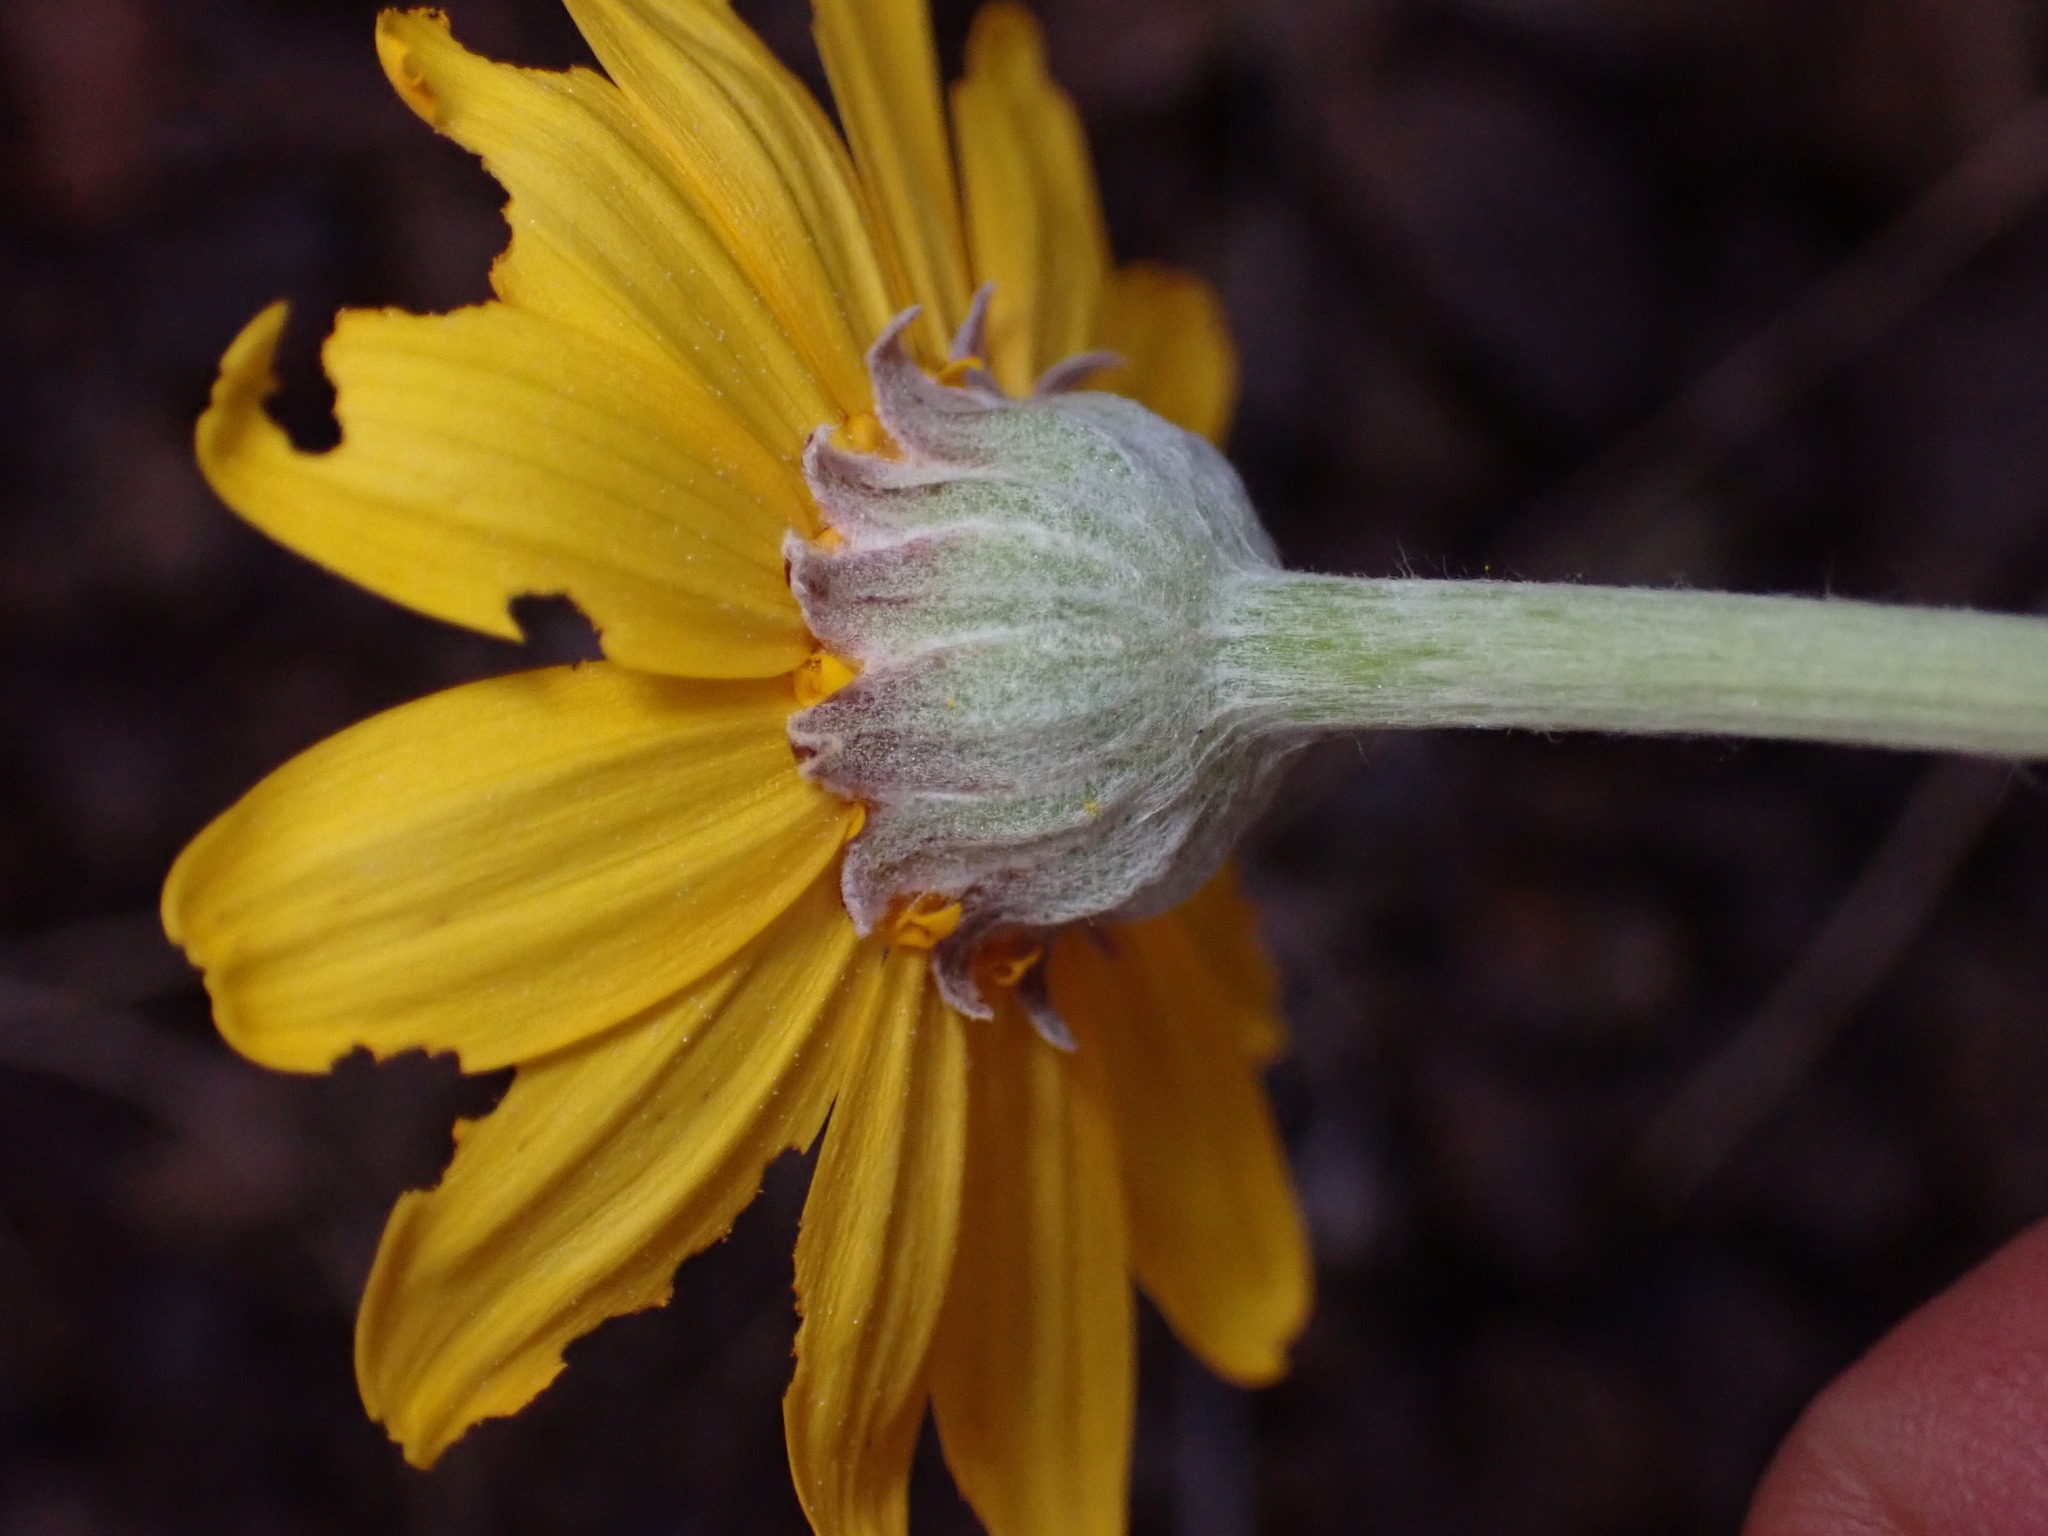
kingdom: Plantae
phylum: Tracheophyta
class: Magnoliopsida
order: Asterales
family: Asteraceae
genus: Eriophyllum
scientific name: Eriophyllum lanatum
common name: Common woolly-sunflower
